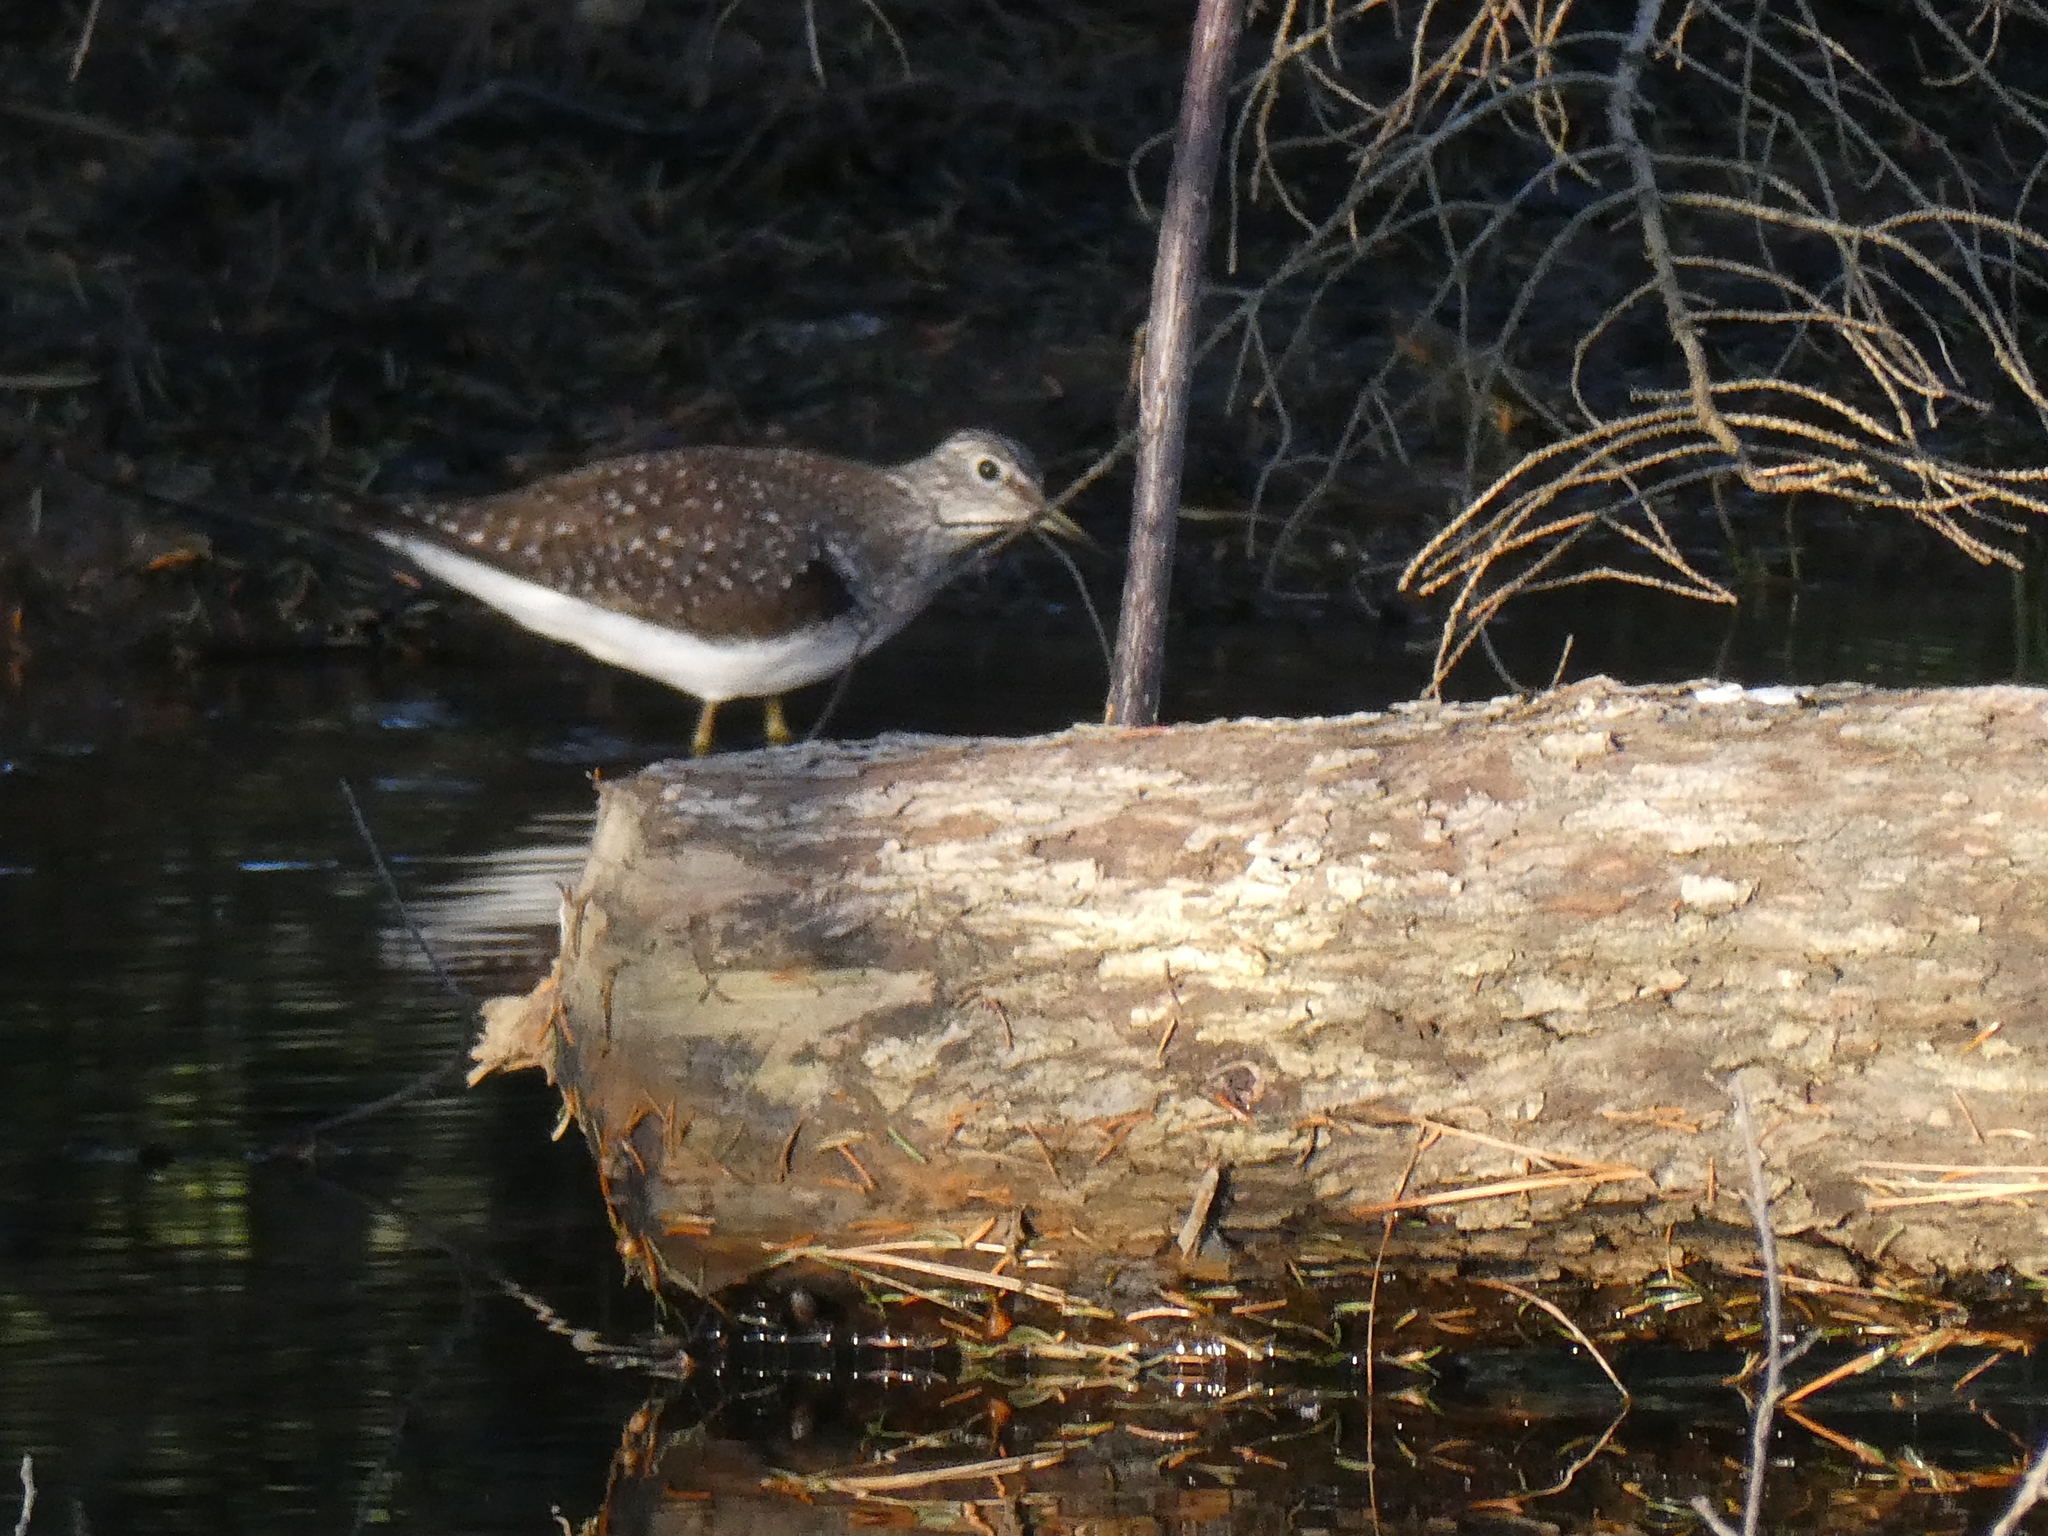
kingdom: Animalia
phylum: Chordata
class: Aves
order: Charadriiformes
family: Scolopacidae
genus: Tringa
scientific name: Tringa solitaria
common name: Solitary sandpiper
